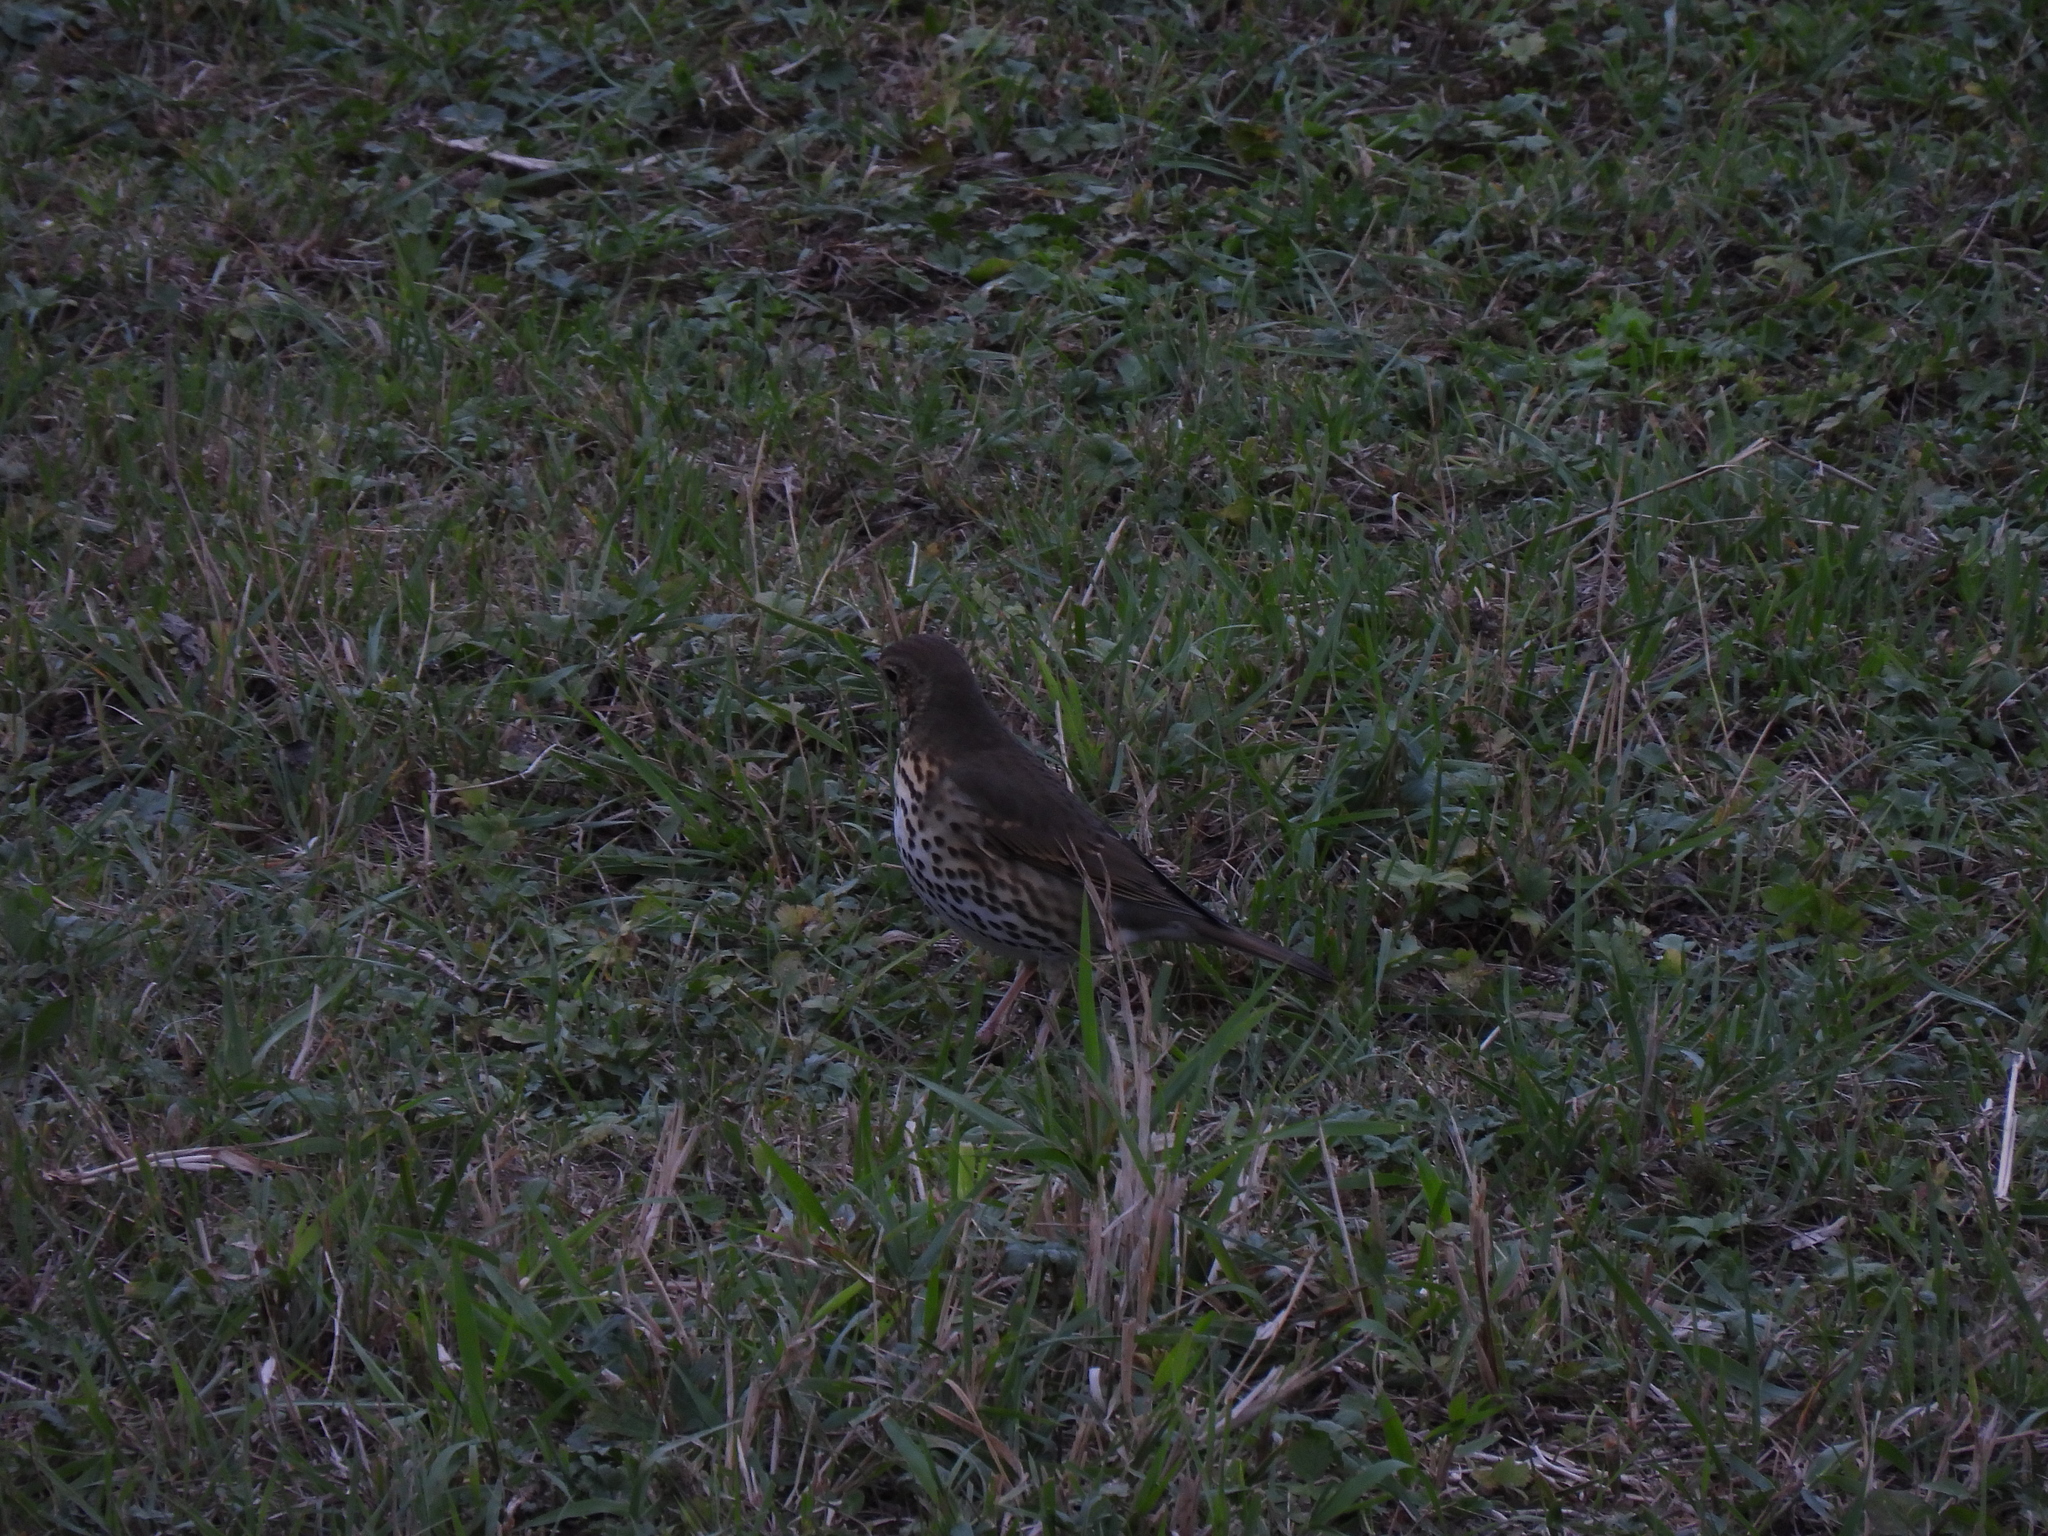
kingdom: Animalia
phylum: Chordata
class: Aves
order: Passeriformes
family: Turdidae
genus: Turdus
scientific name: Turdus philomelos
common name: Song thrush
